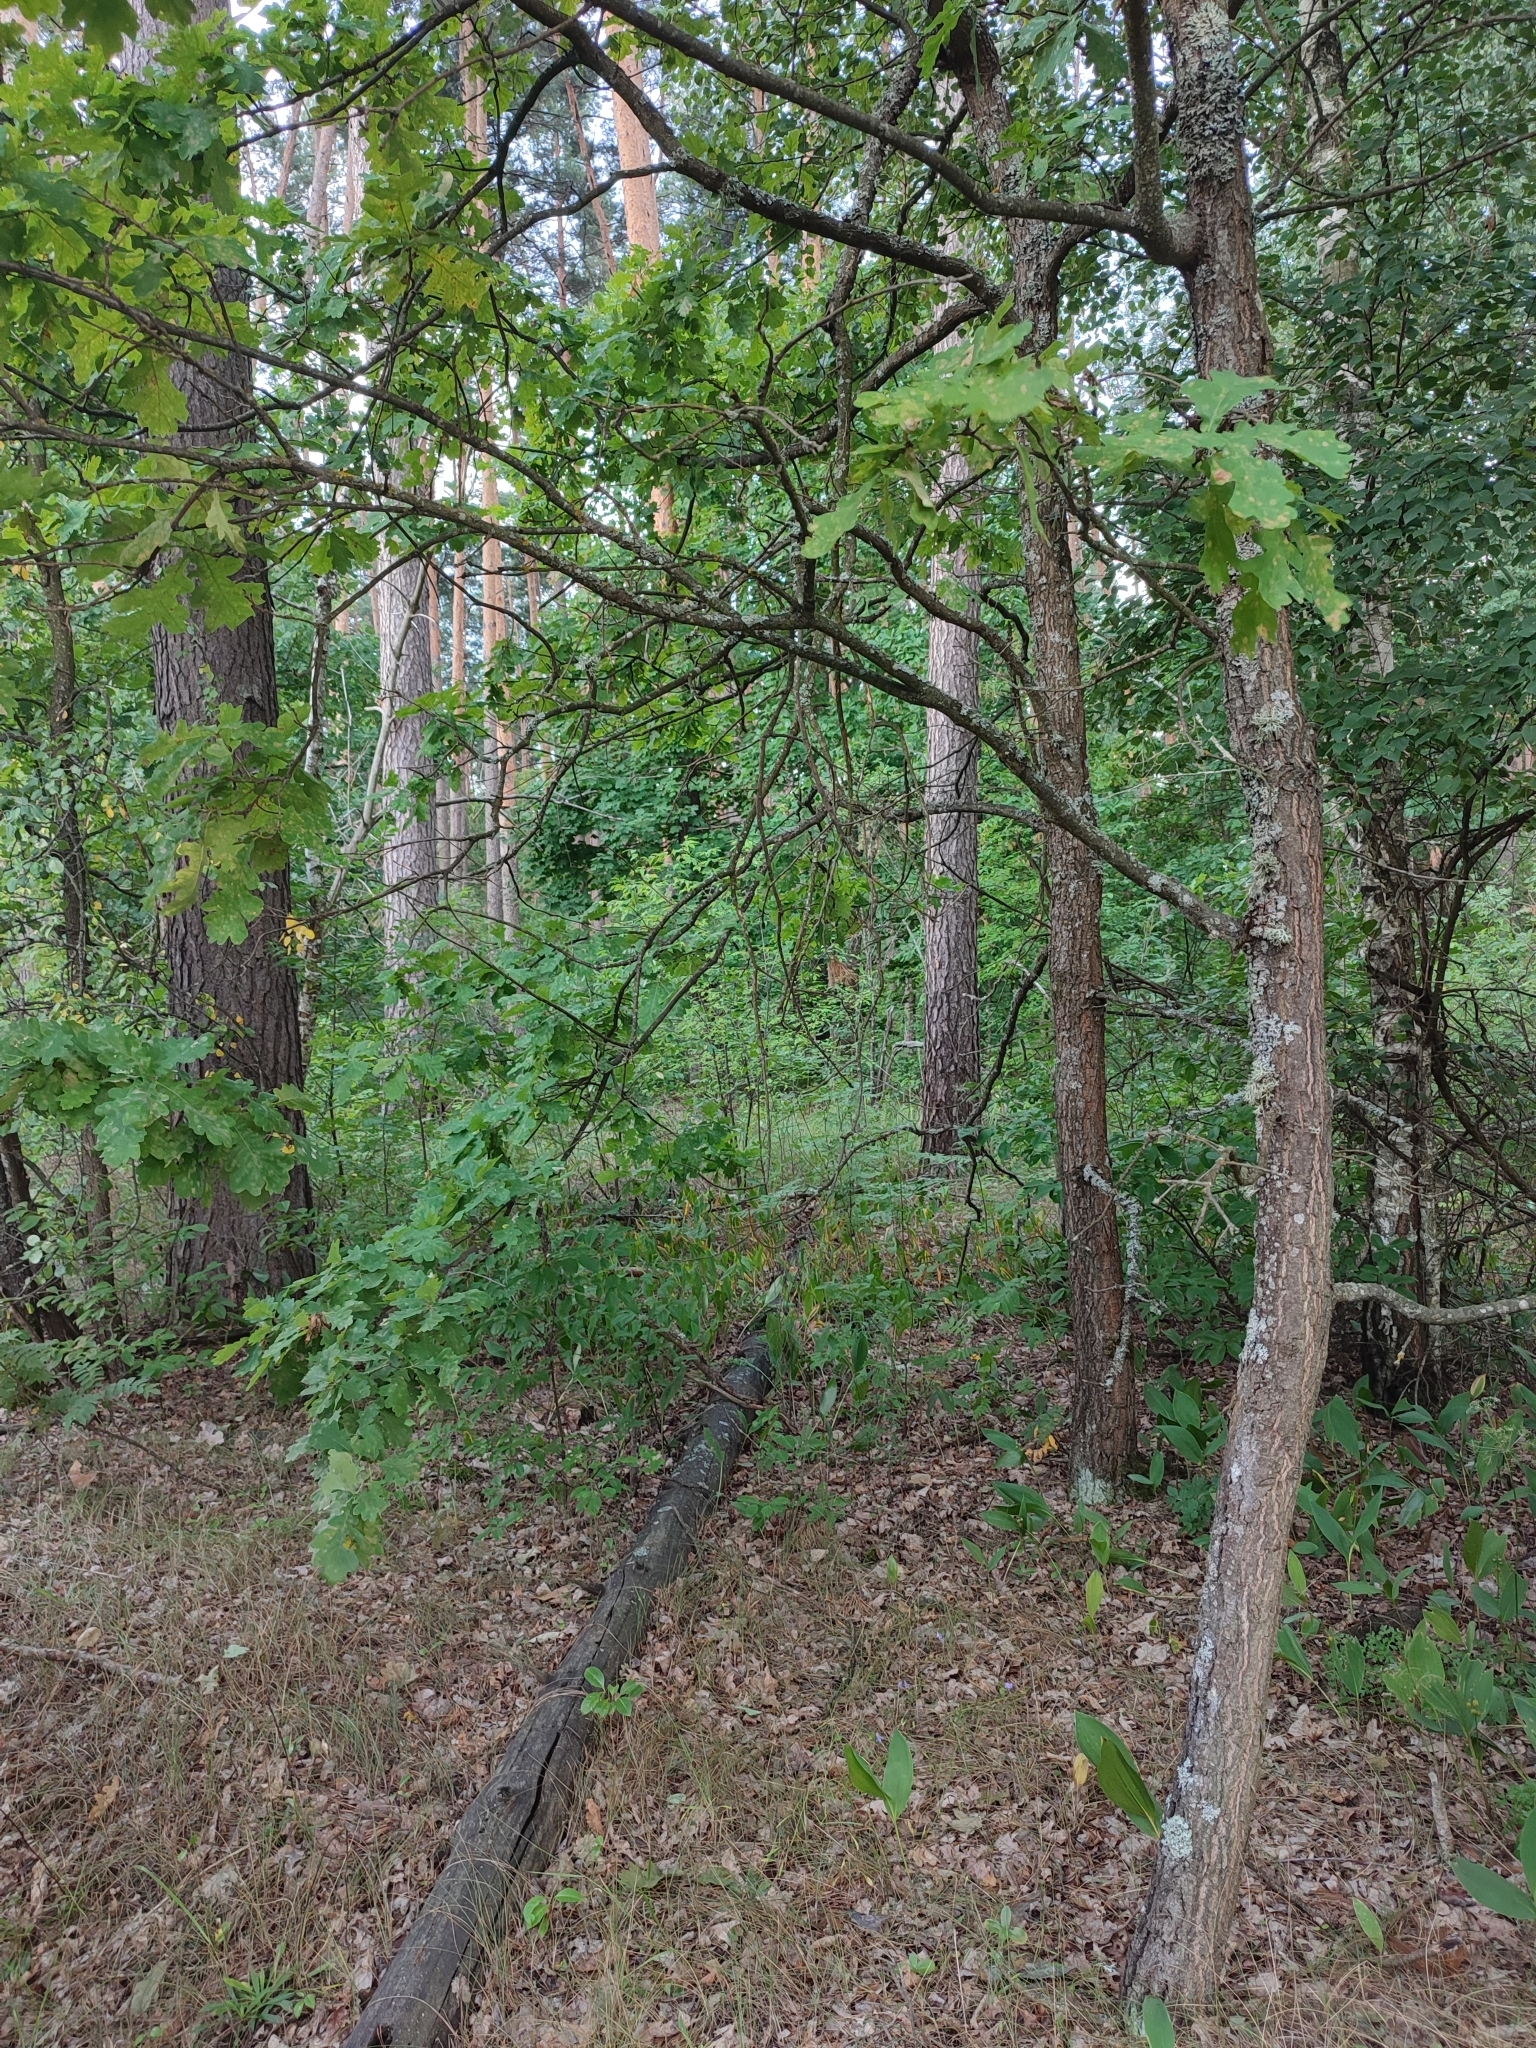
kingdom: Plantae
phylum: Tracheophyta
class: Magnoliopsida
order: Fagales
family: Fagaceae
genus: Quercus
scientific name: Quercus robur
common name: Pedunculate oak
